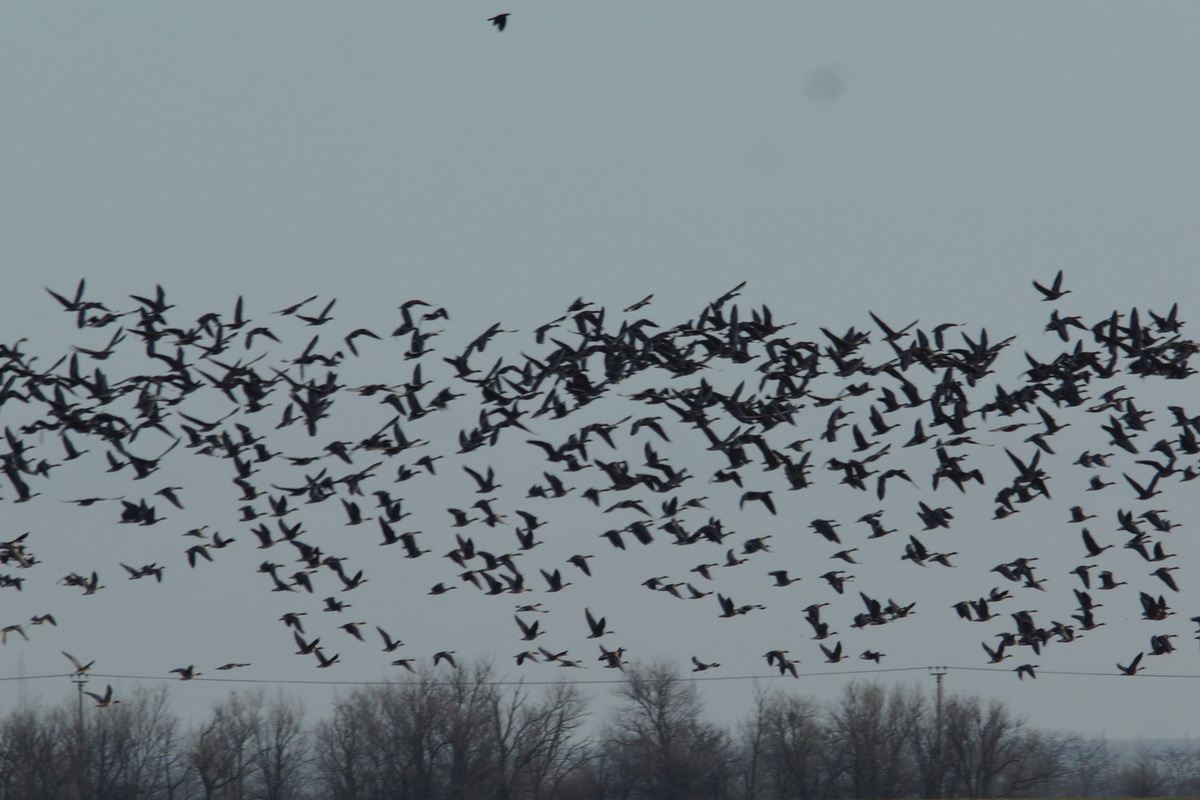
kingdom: Animalia
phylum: Chordata
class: Aves
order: Anseriformes
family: Anatidae
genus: Anser
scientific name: Anser albifrons
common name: Greater white-fronted goose
